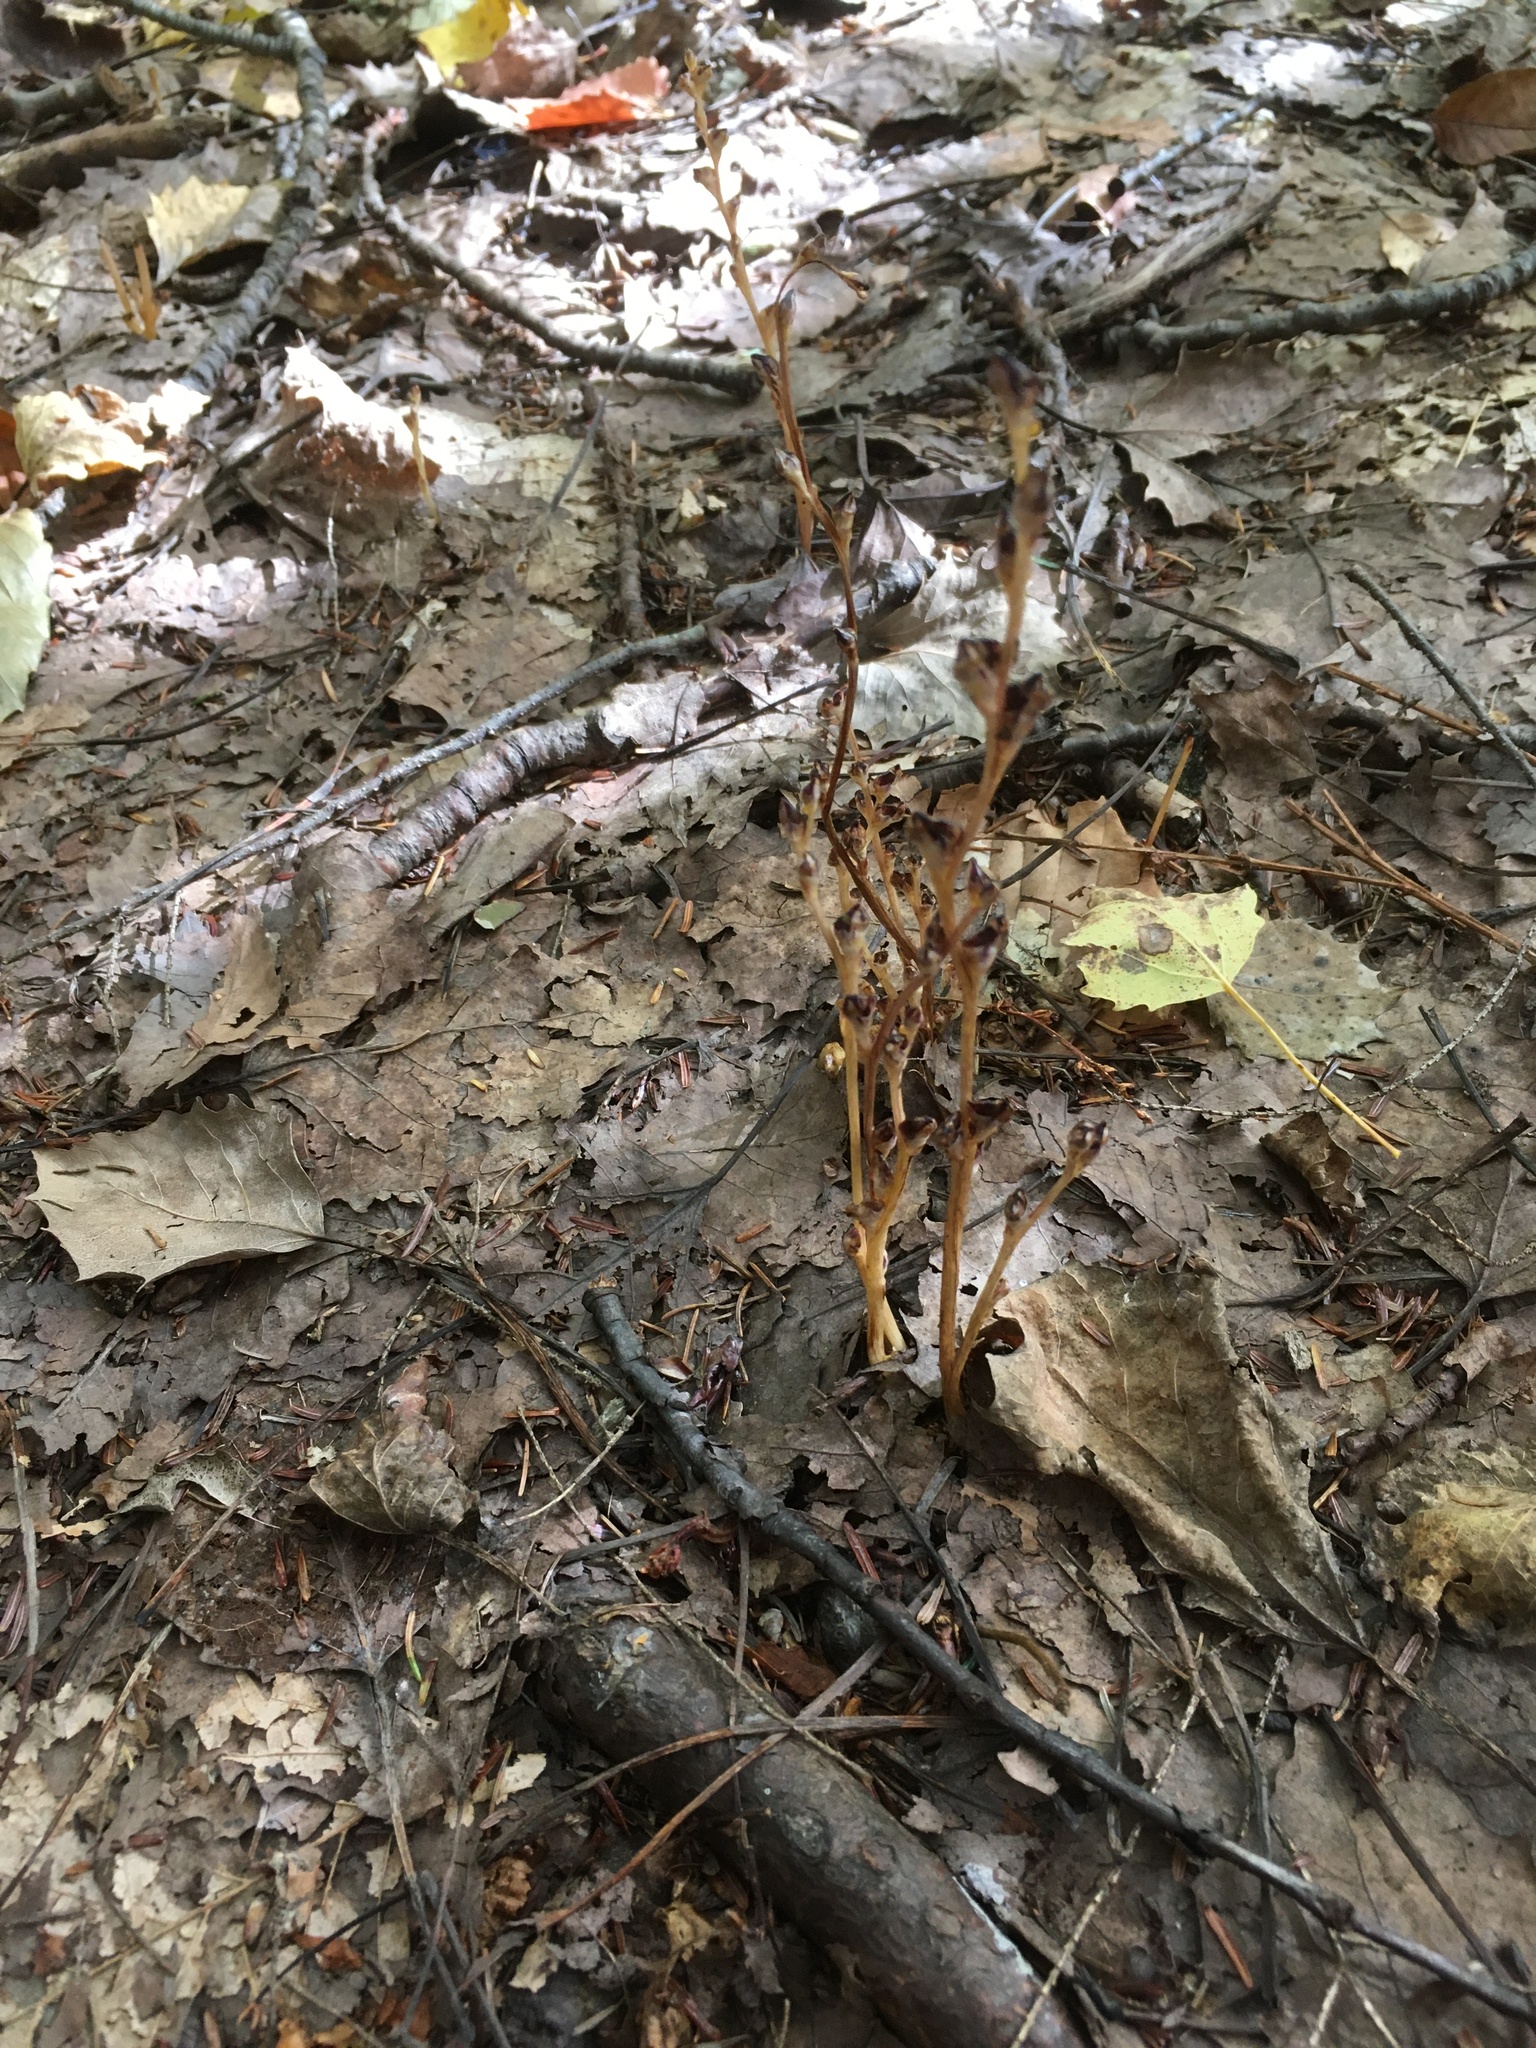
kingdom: Plantae
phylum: Tracheophyta
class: Magnoliopsida
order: Lamiales
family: Orobanchaceae
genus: Epifagus
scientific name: Epifagus virginiana
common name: Beechdrops
